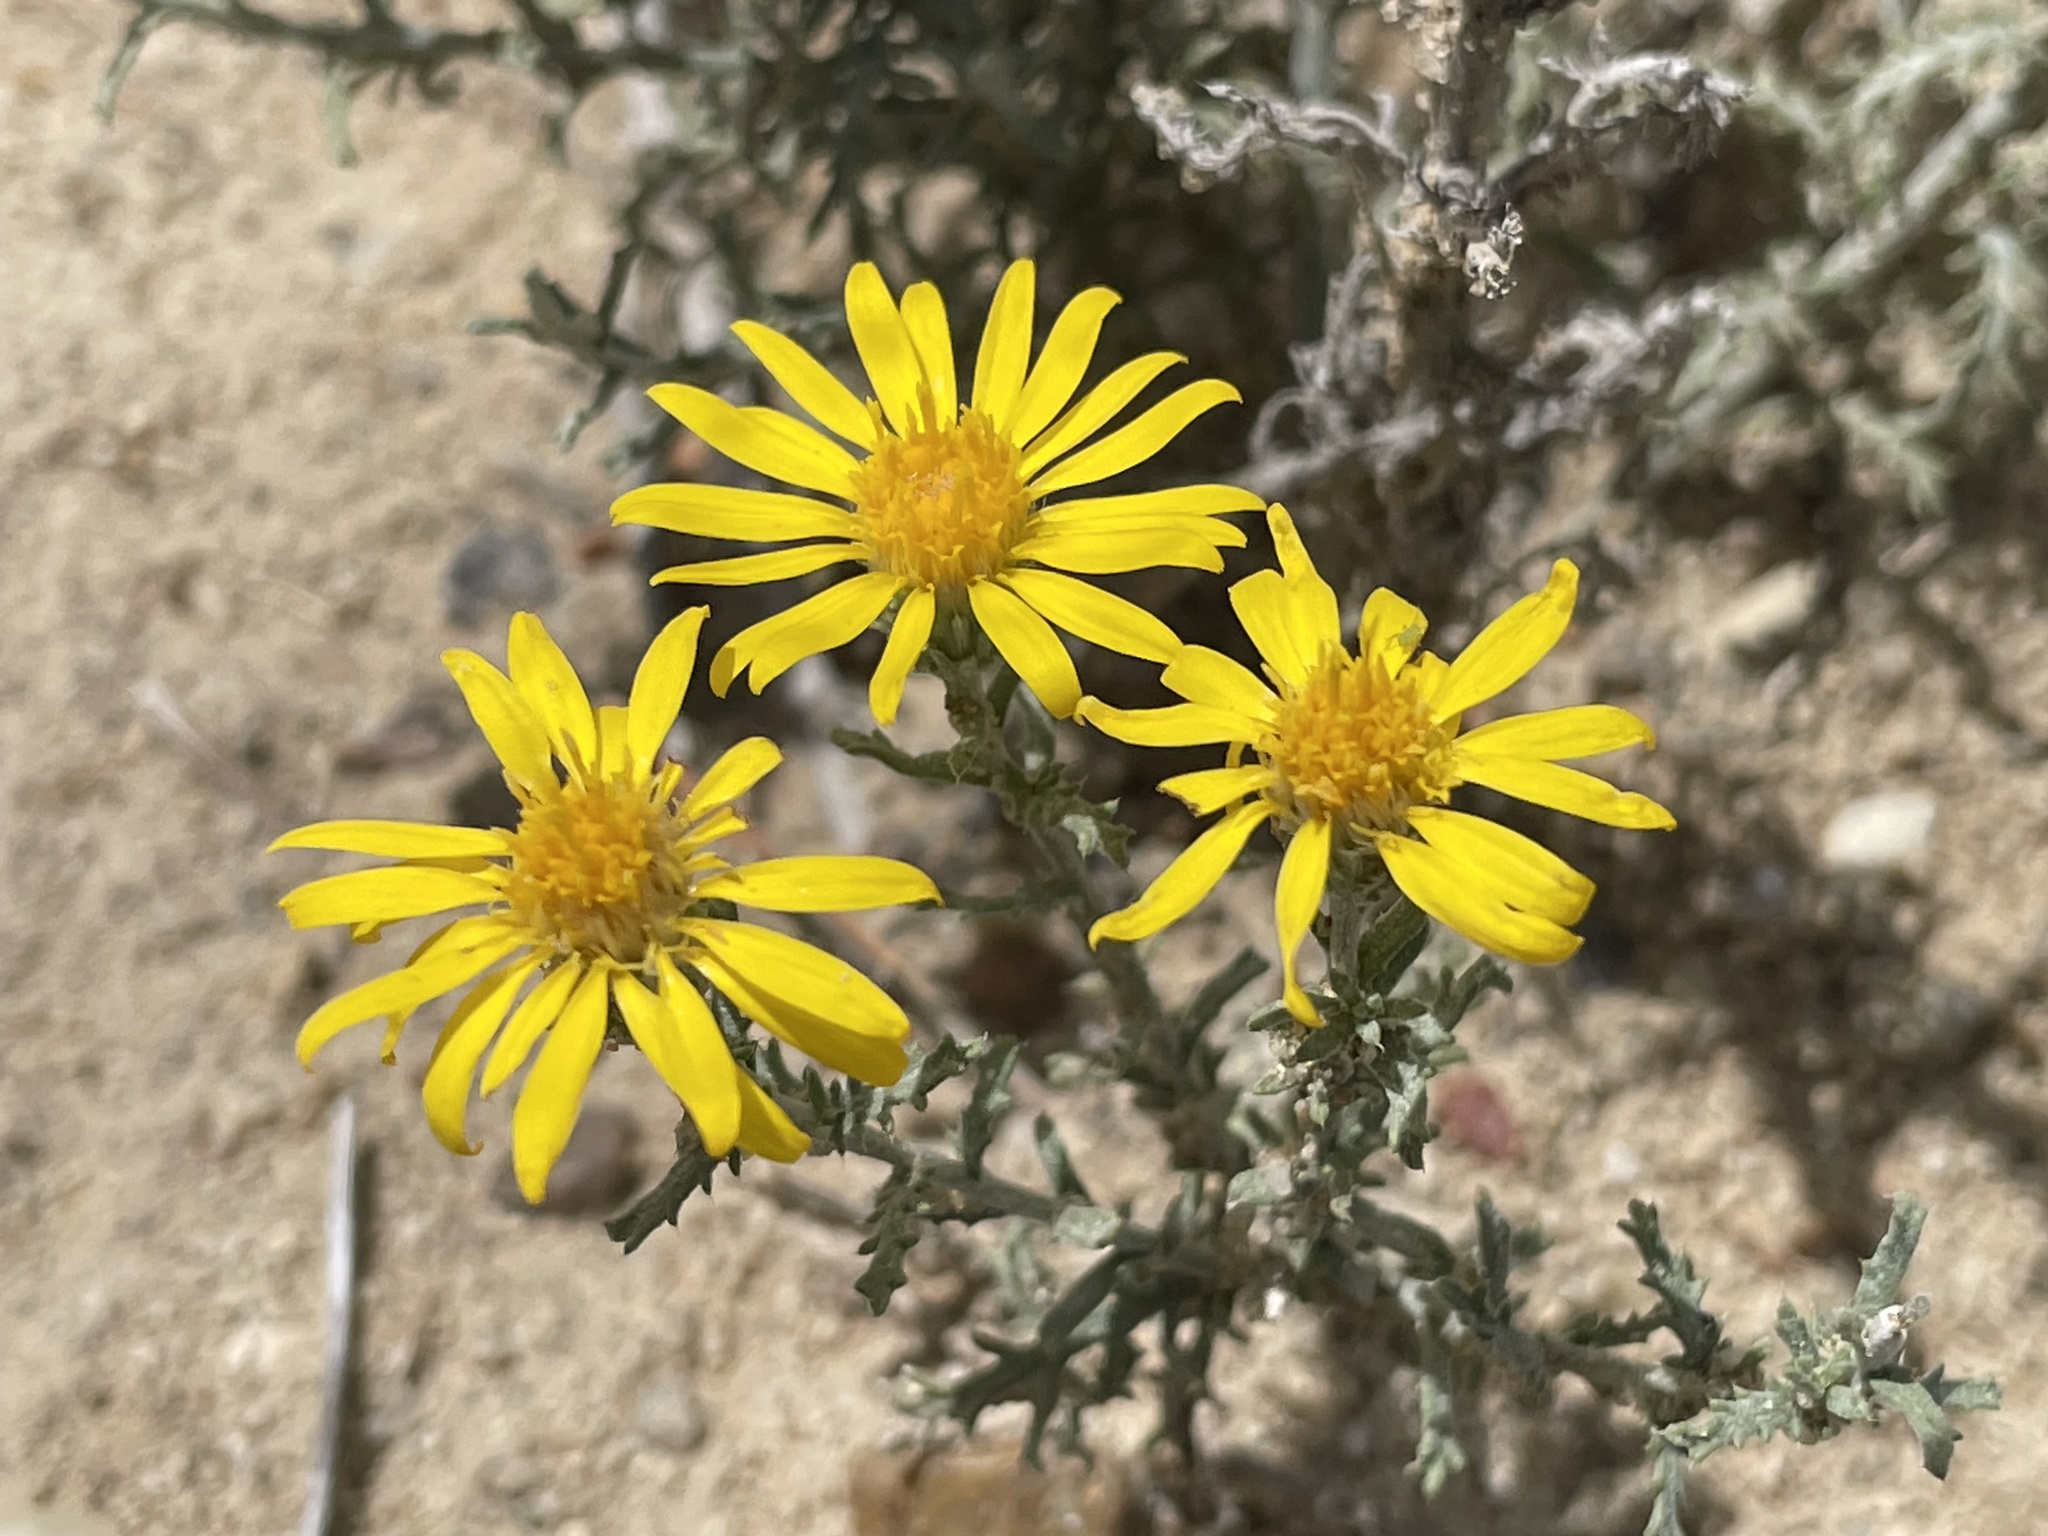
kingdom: Plantae
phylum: Tracheophyta
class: Magnoliopsida
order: Asterales
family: Asteraceae
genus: Xanthisma
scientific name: Xanthisma spinulosum
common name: Spiny goldenweed
